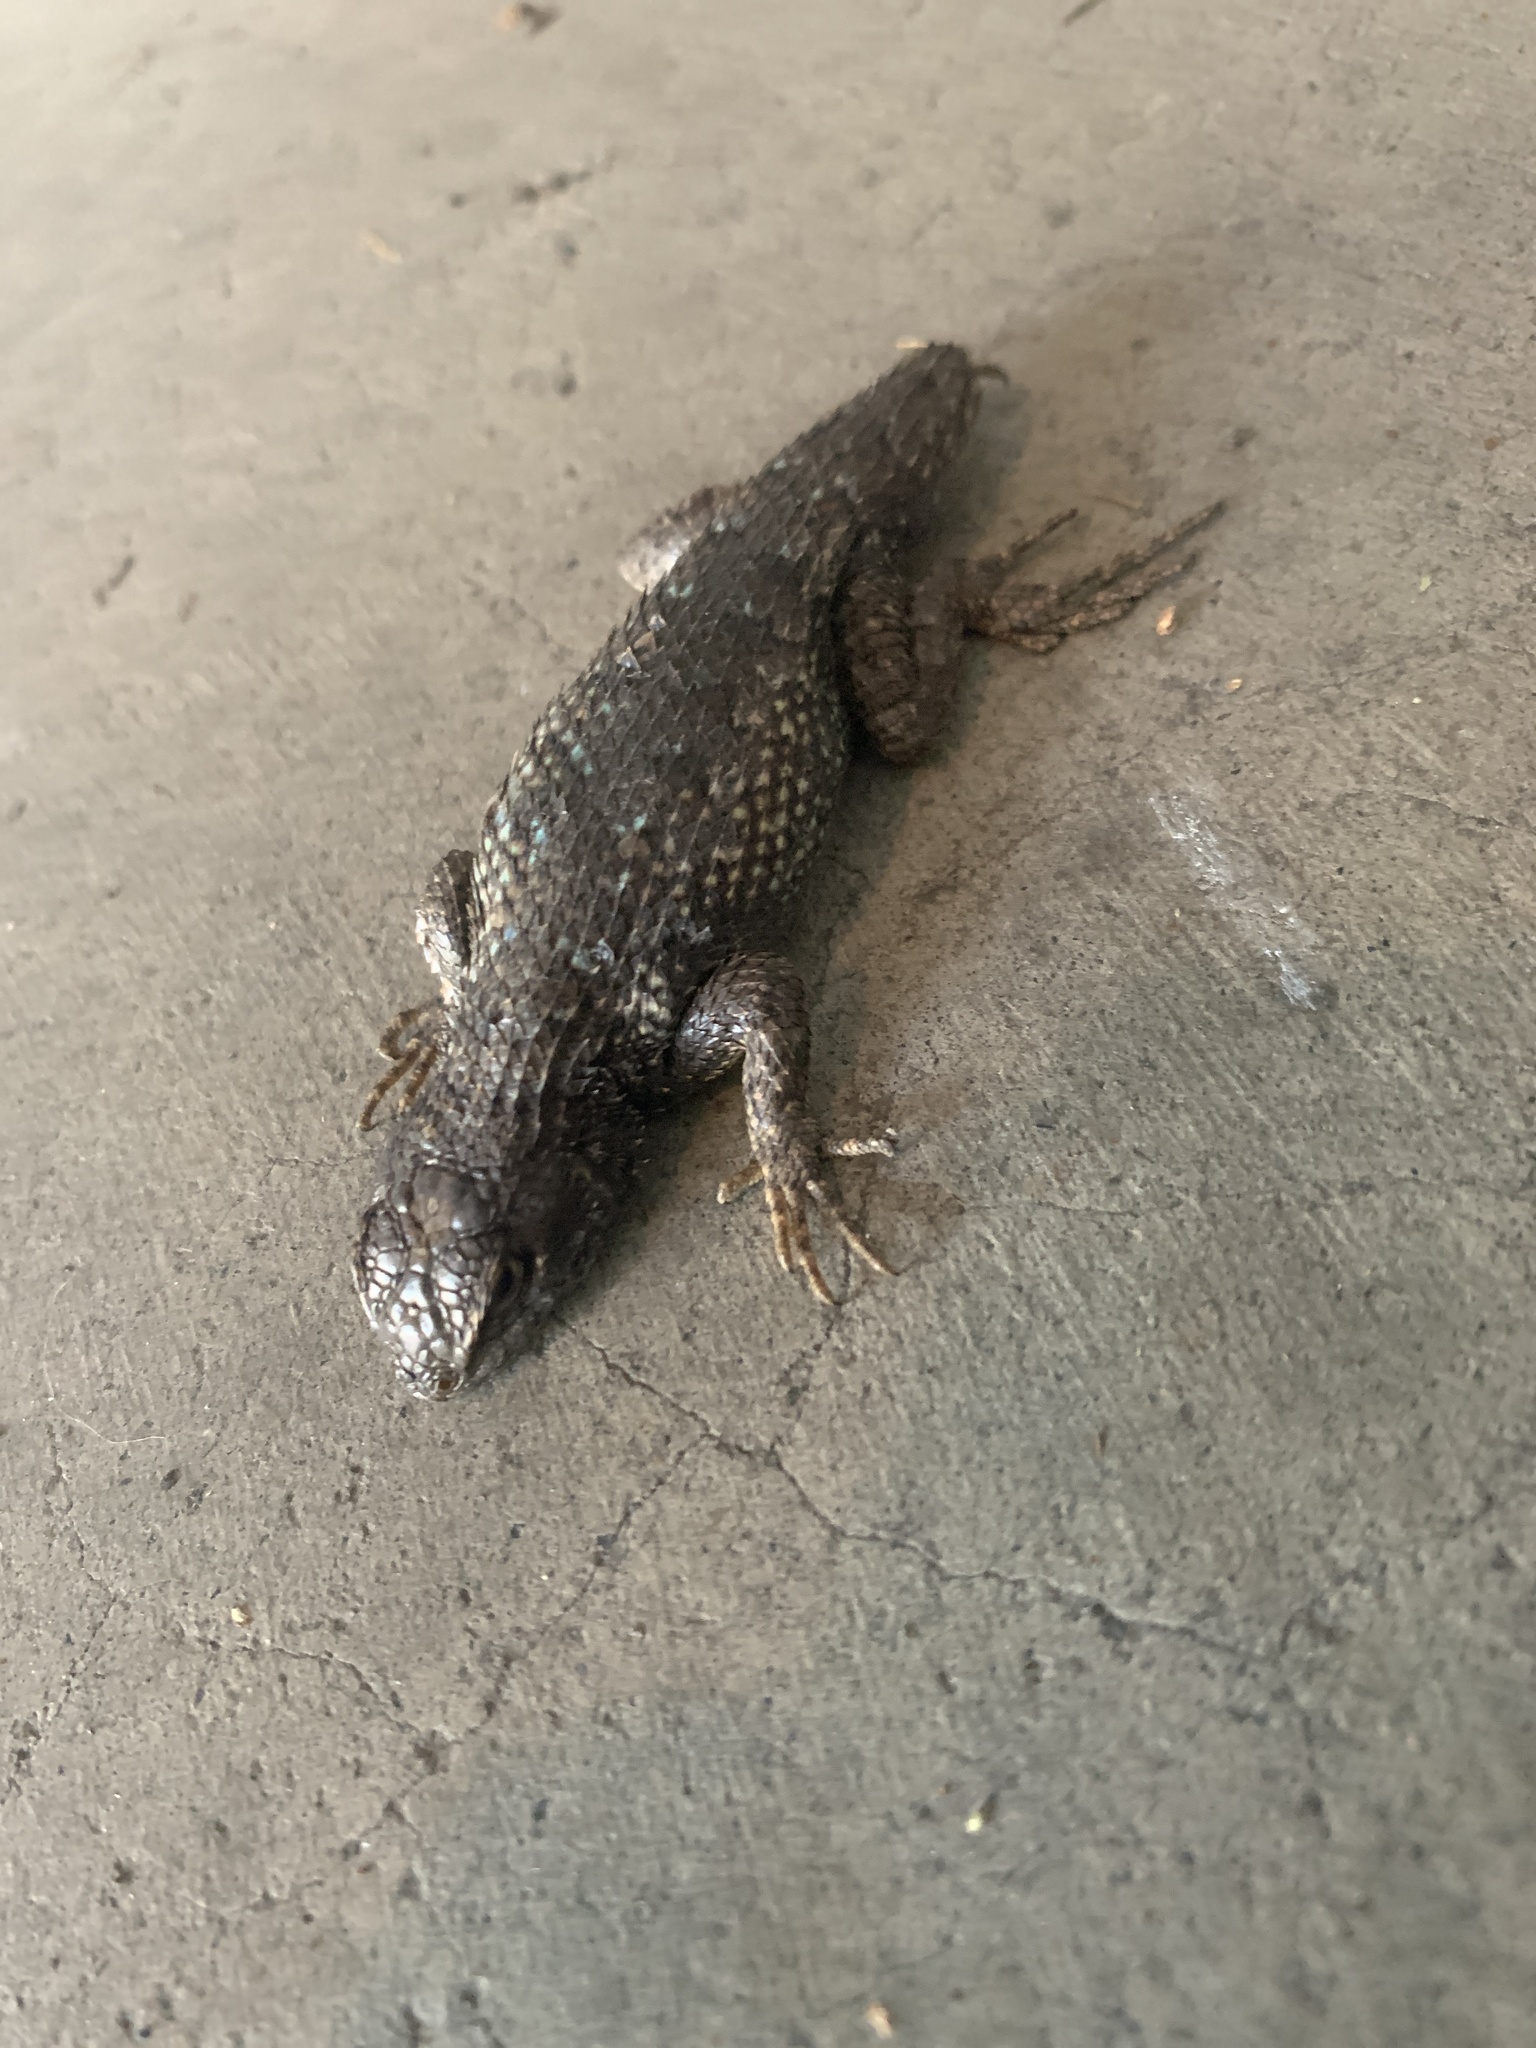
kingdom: Animalia
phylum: Chordata
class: Squamata
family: Phrynosomatidae
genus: Sceloporus
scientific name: Sceloporus occidentalis
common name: Western fence lizard
